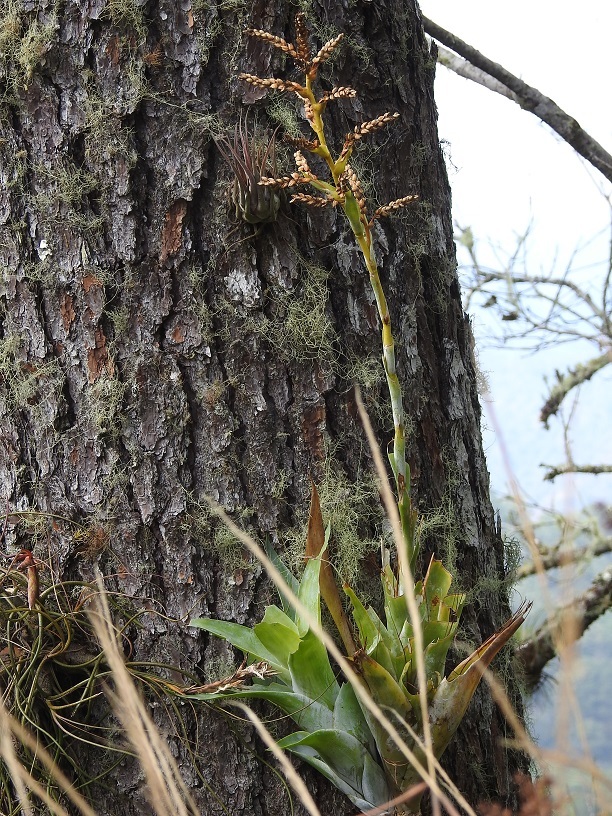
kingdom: Plantae
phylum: Tracheophyta
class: Liliopsida
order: Poales
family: Bromeliaceae
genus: Catopsis
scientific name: Catopsis occulta
